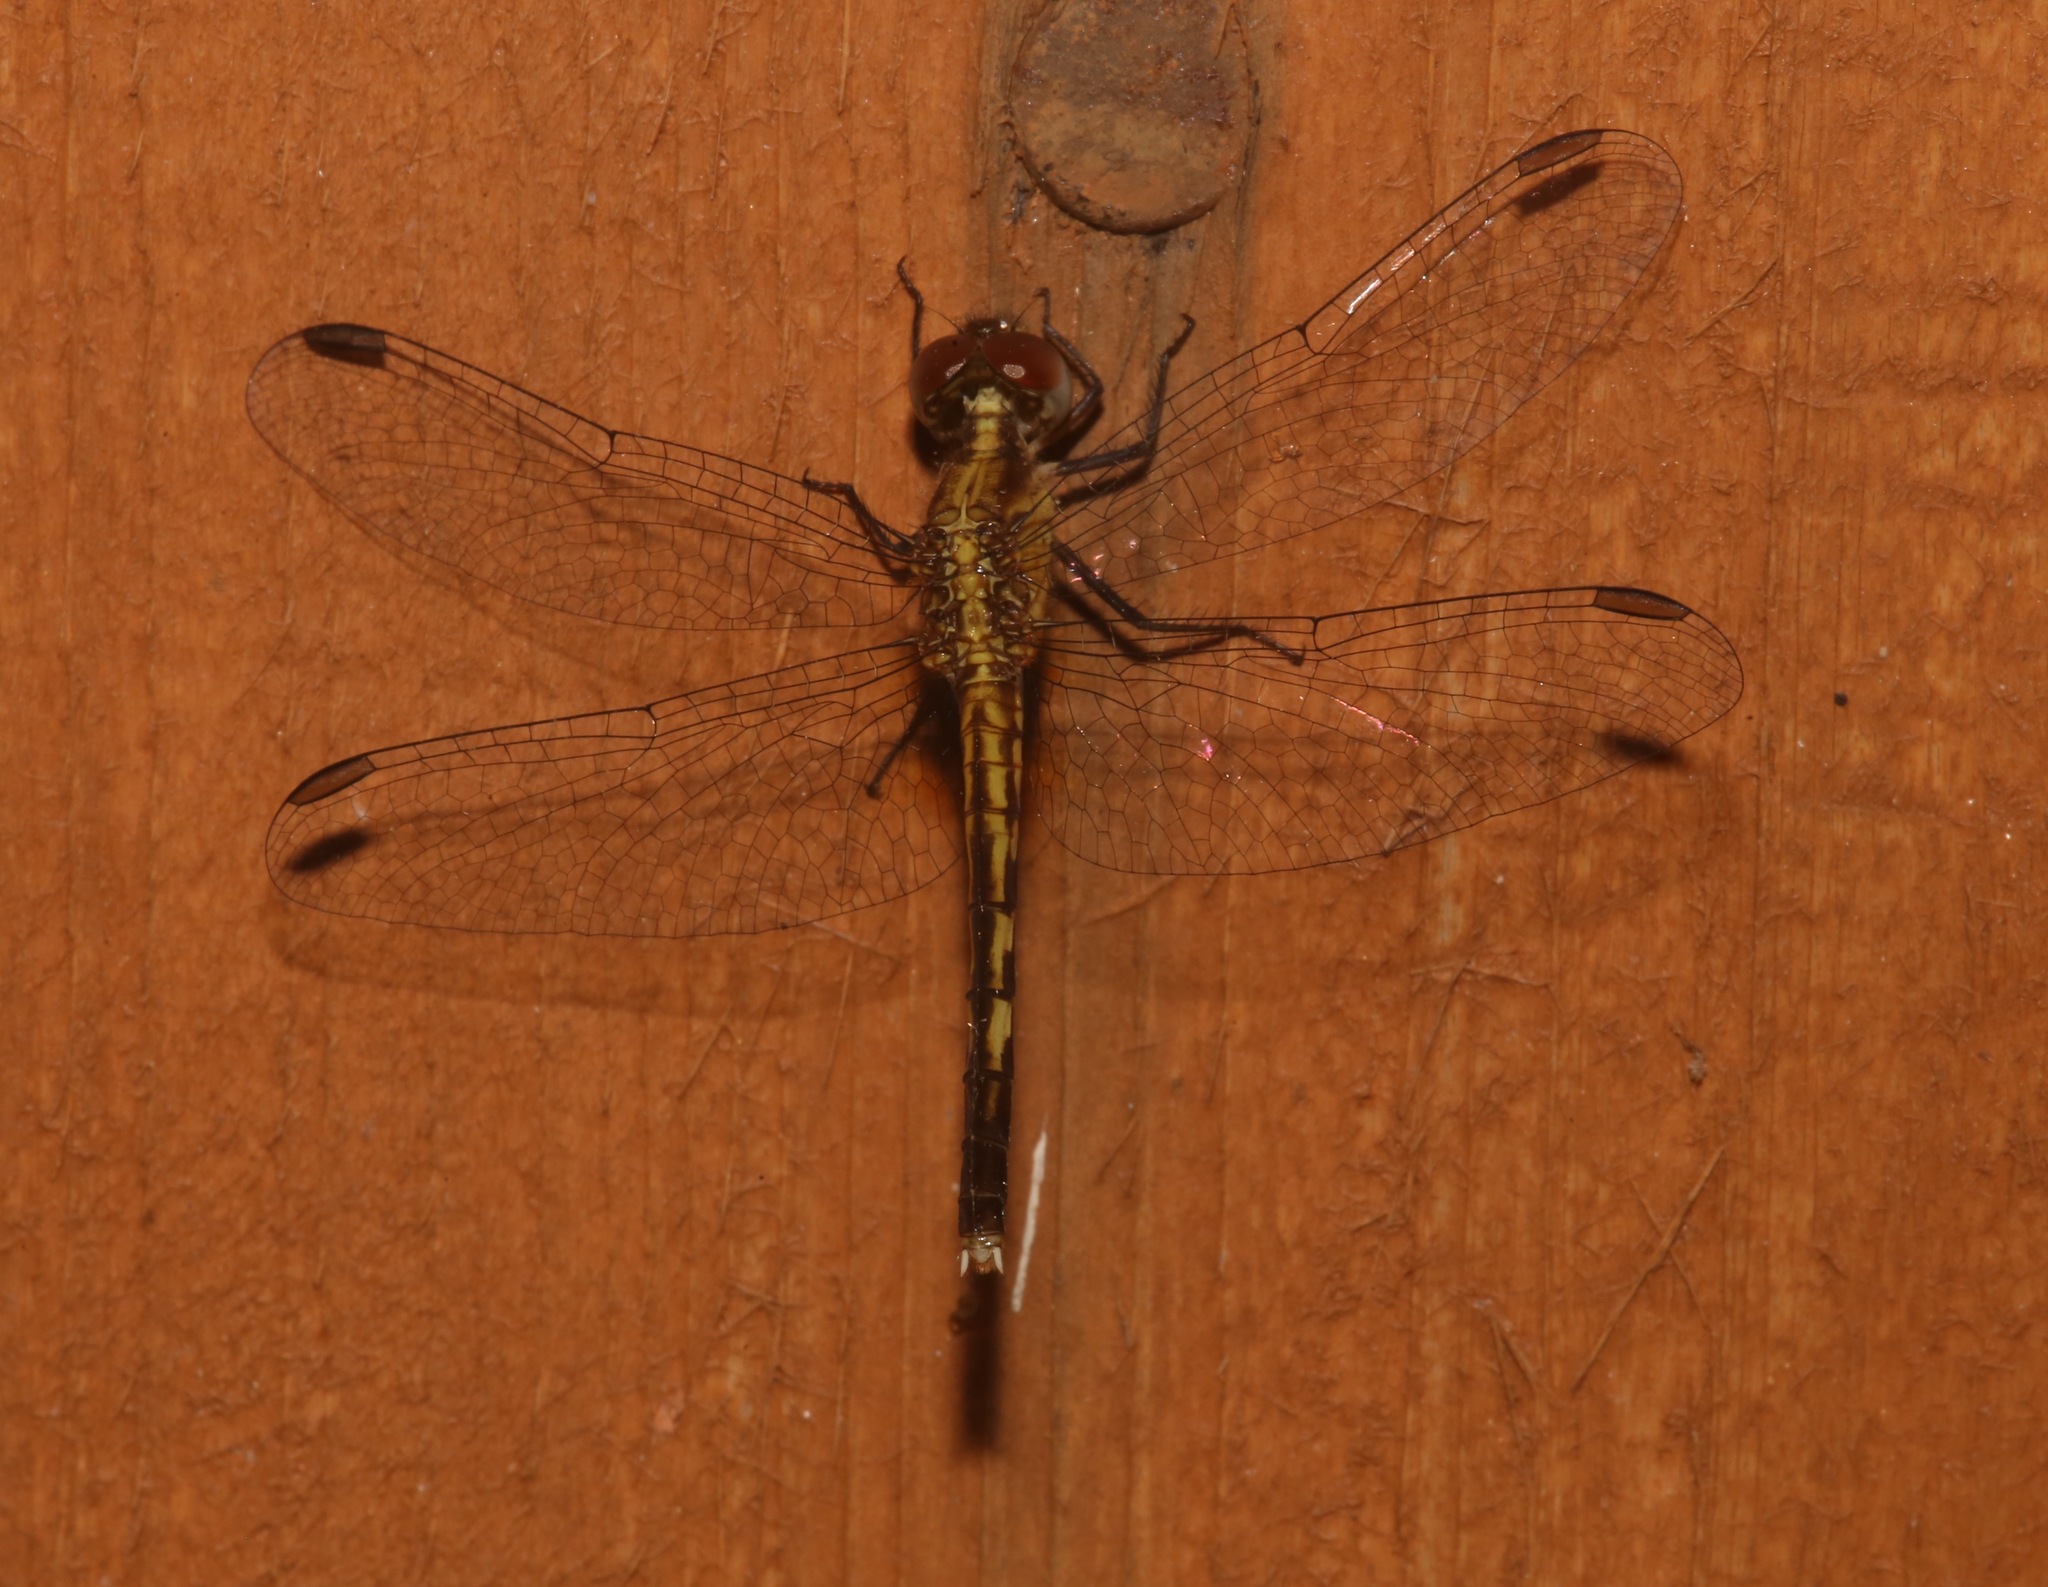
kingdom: Animalia
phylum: Arthropoda
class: Insecta
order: Odonata
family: Libellulidae
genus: Erythrodiplax
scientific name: Erythrodiplax minuscula
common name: Little blue dragonlet
